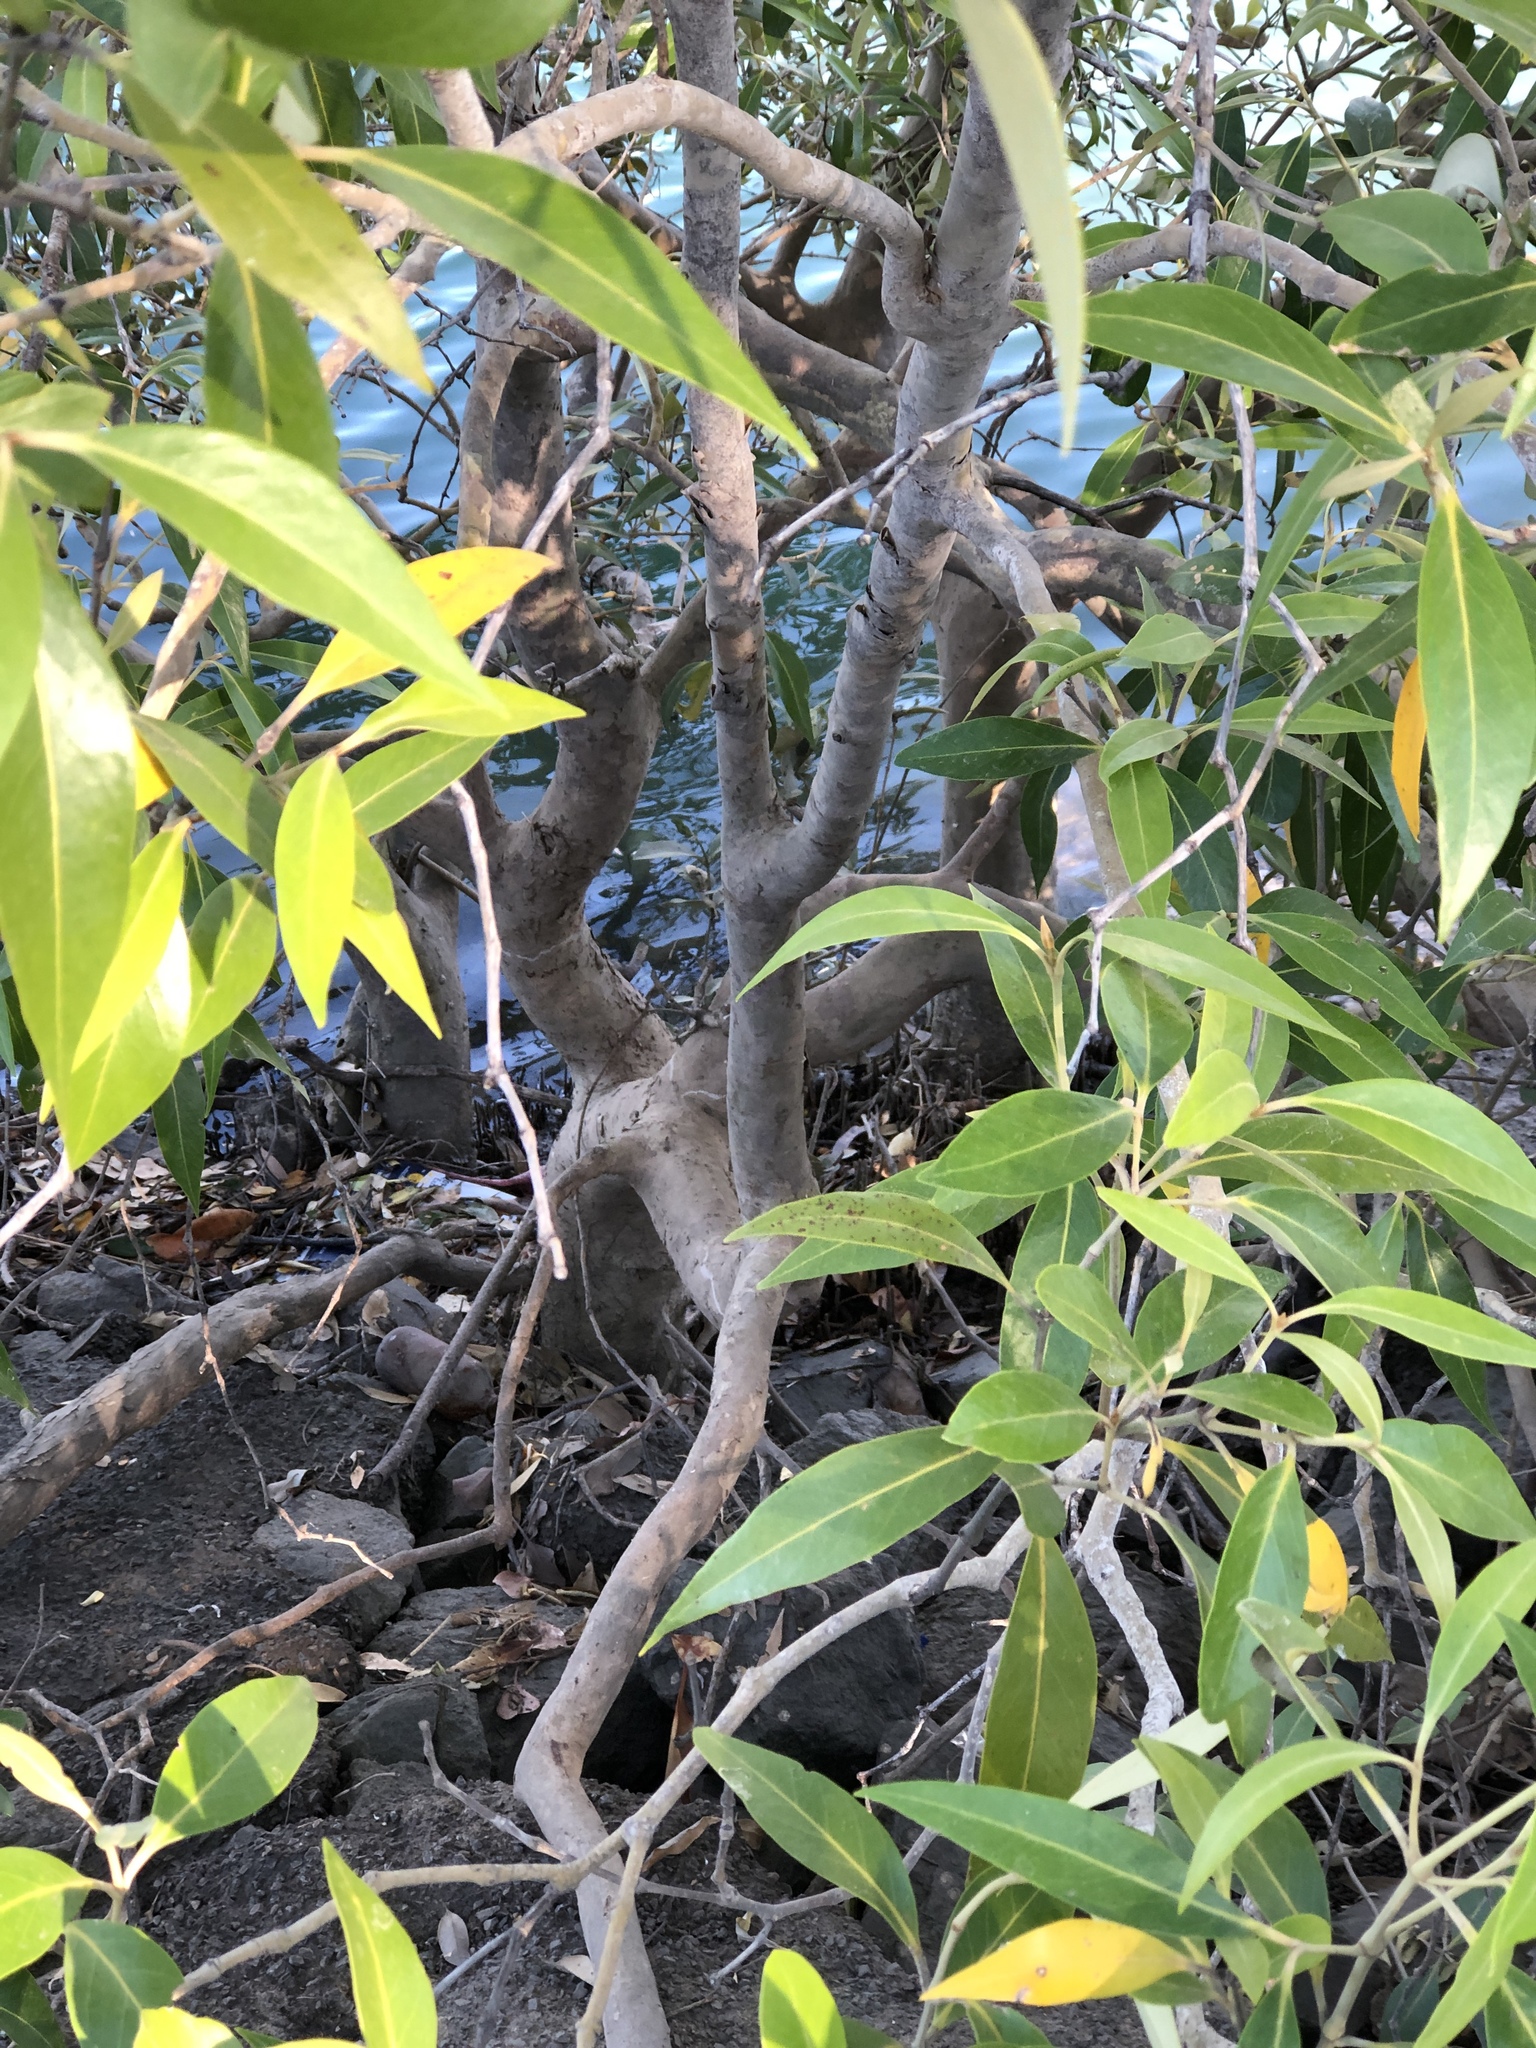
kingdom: Plantae
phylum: Tracheophyta
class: Magnoliopsida
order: Lamiales
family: Acanthaceae
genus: Avicennia
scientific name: Avicennia marina
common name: Gray mangrove
